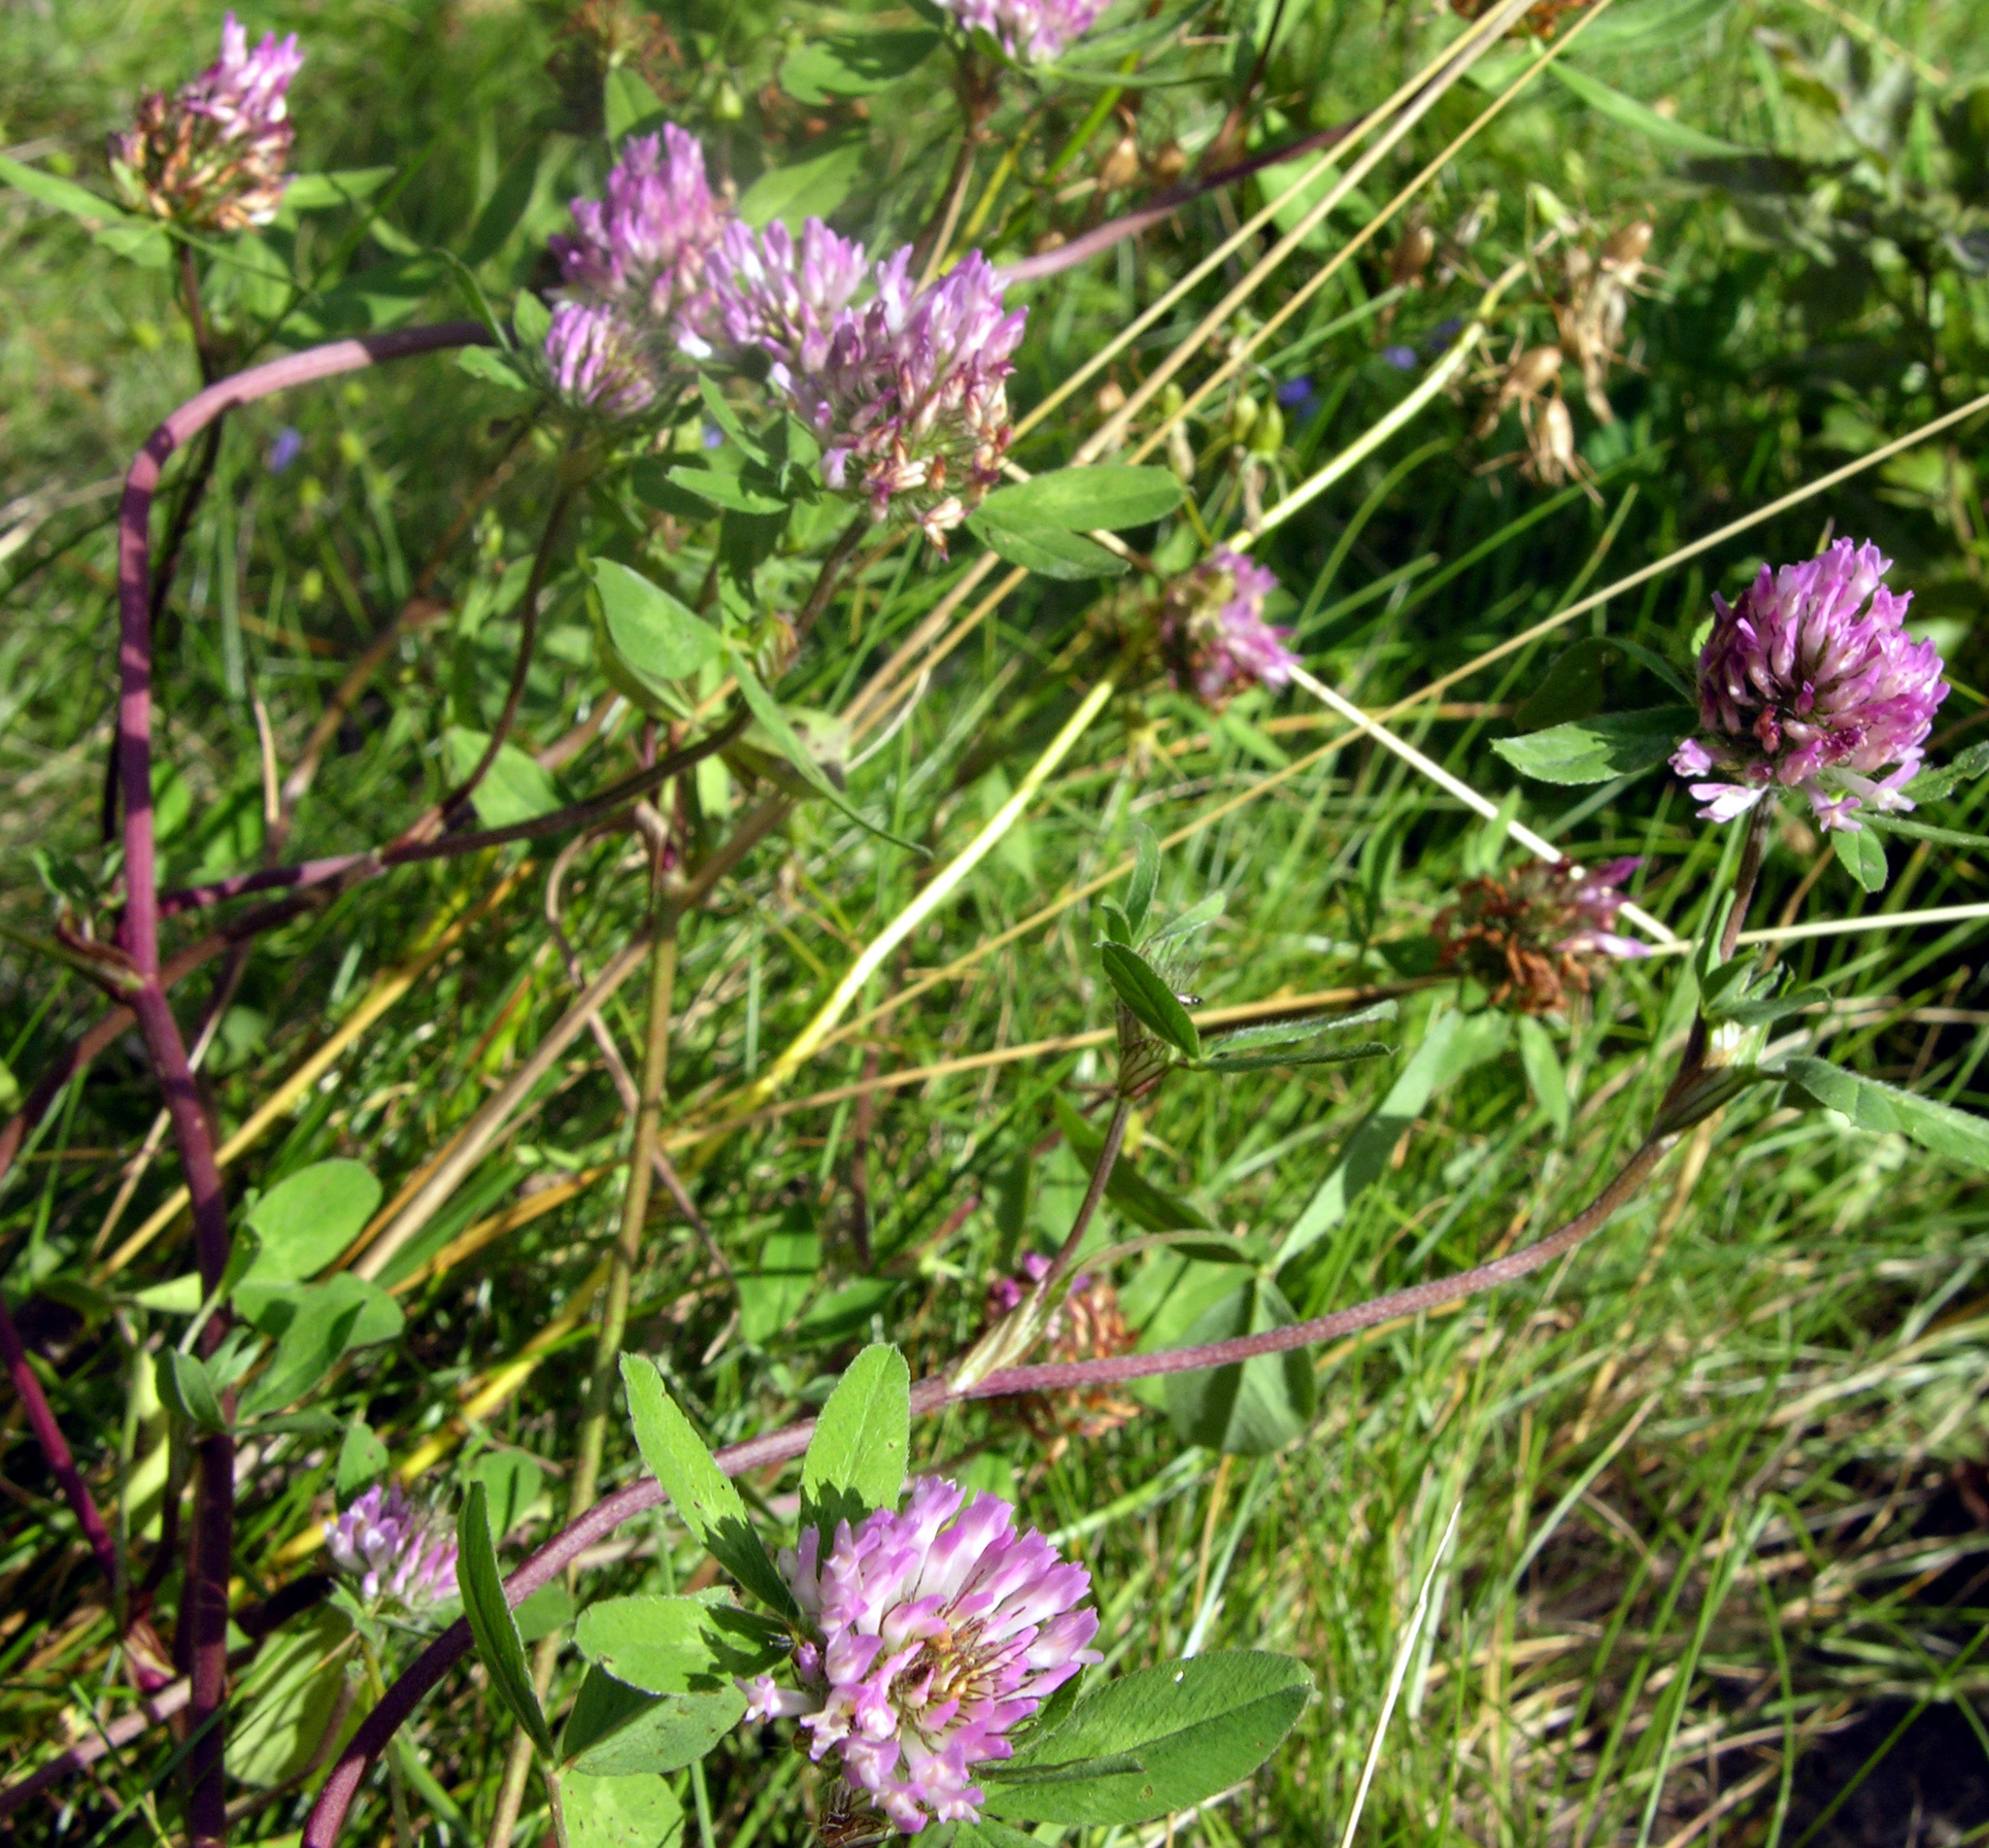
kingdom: Plantae
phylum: Tracheophyta
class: Magnoliopsida
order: Fabales
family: Fabaceae
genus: Trifolium
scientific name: Trifolium pratense
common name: Red clover
